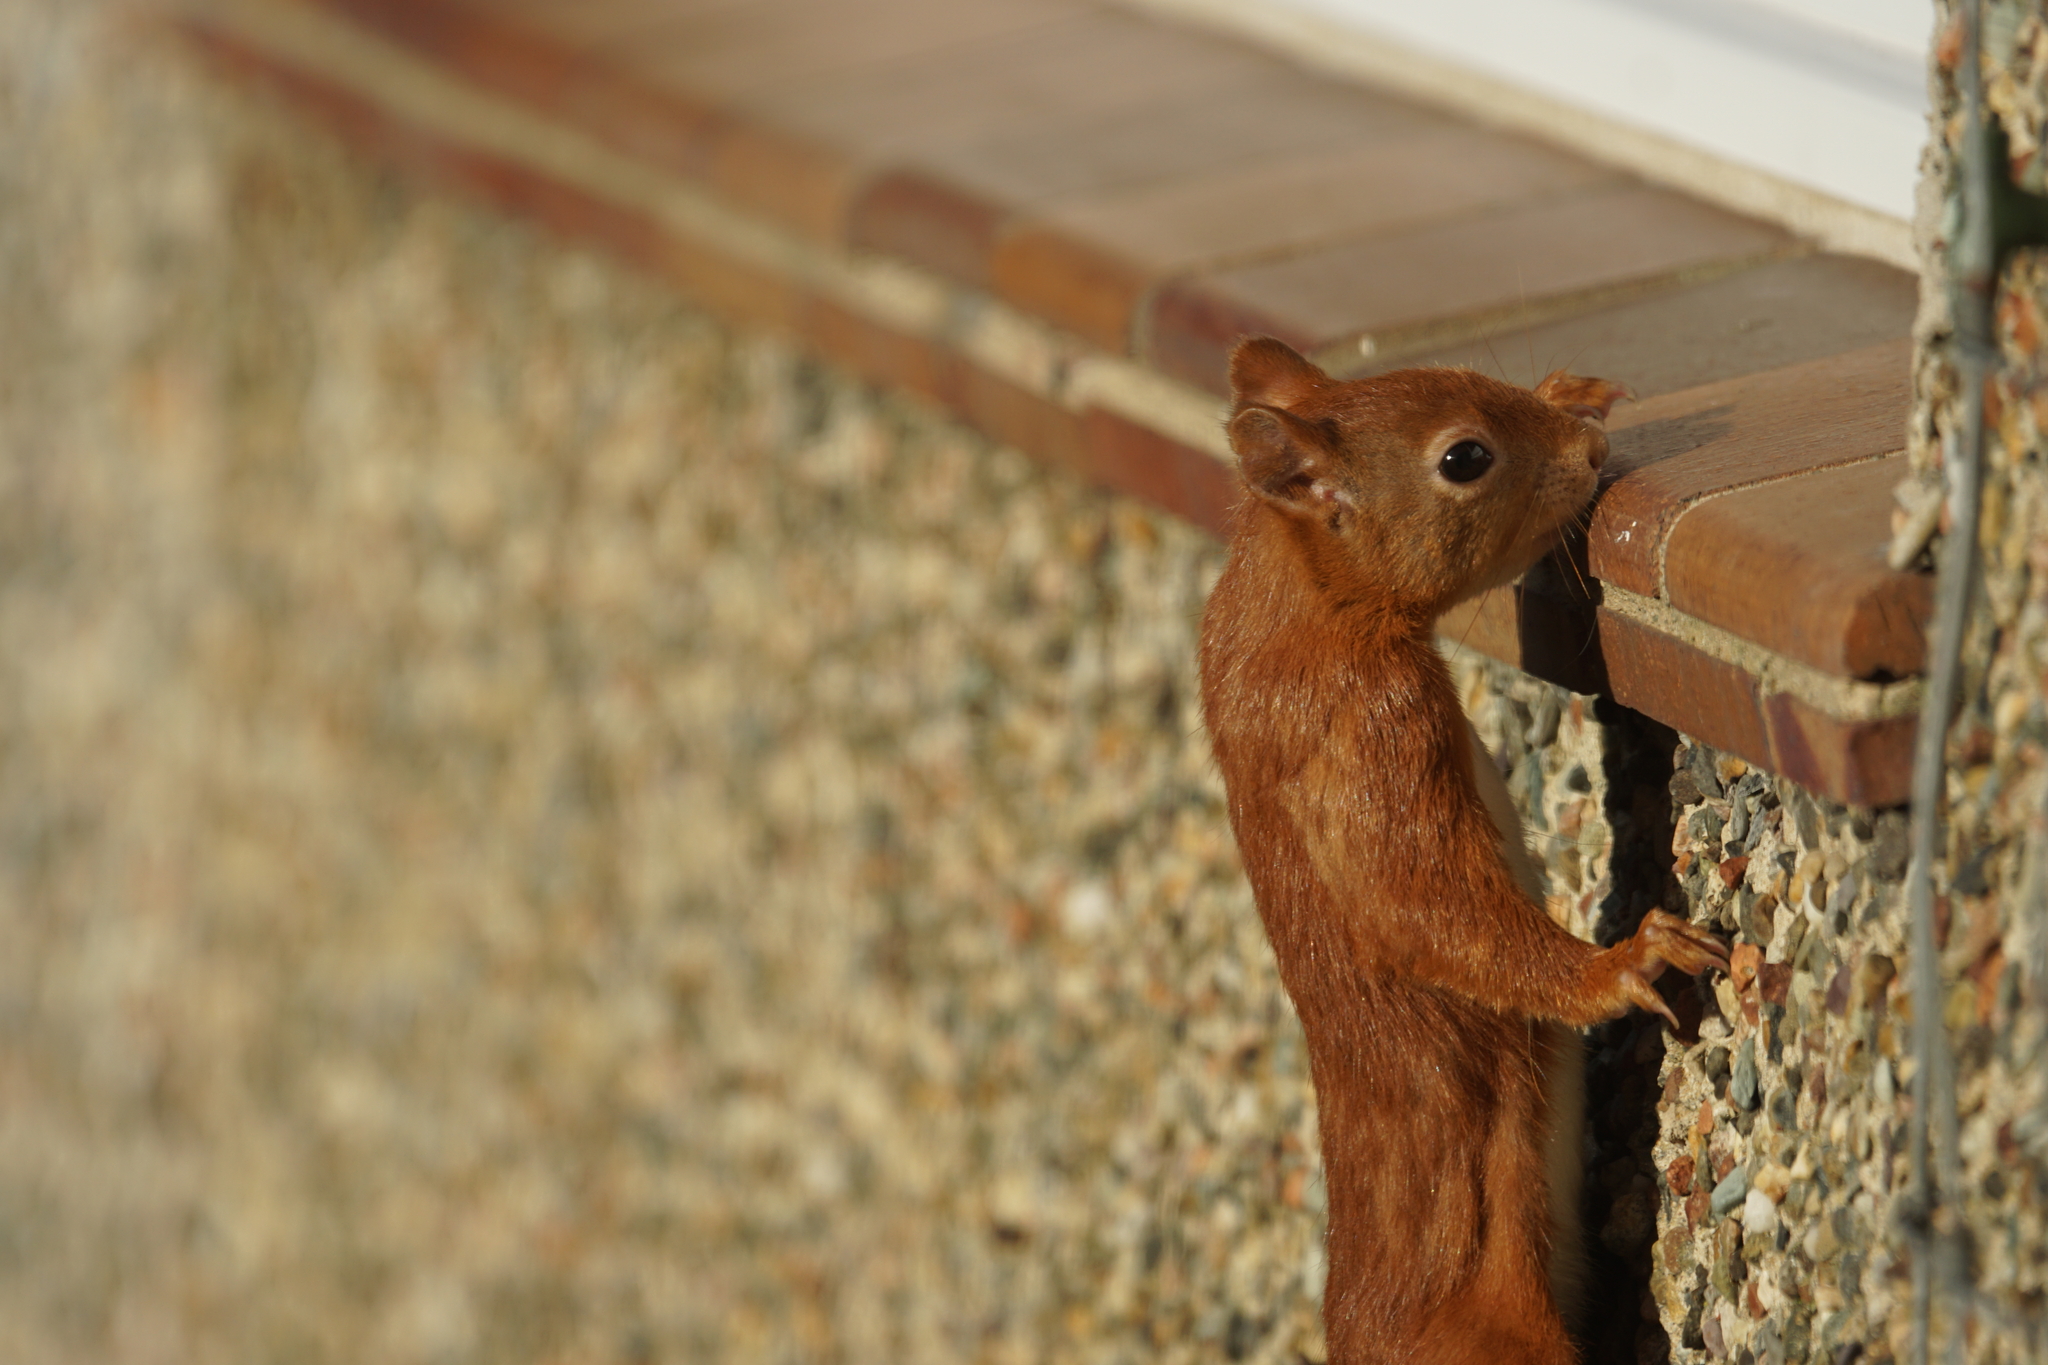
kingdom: Animalia
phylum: Chordata
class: Mammalia
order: Rodentia
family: Sciuridae
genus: Sciurus
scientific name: Sciurus vulgaris
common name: Eurasian red squirrel
